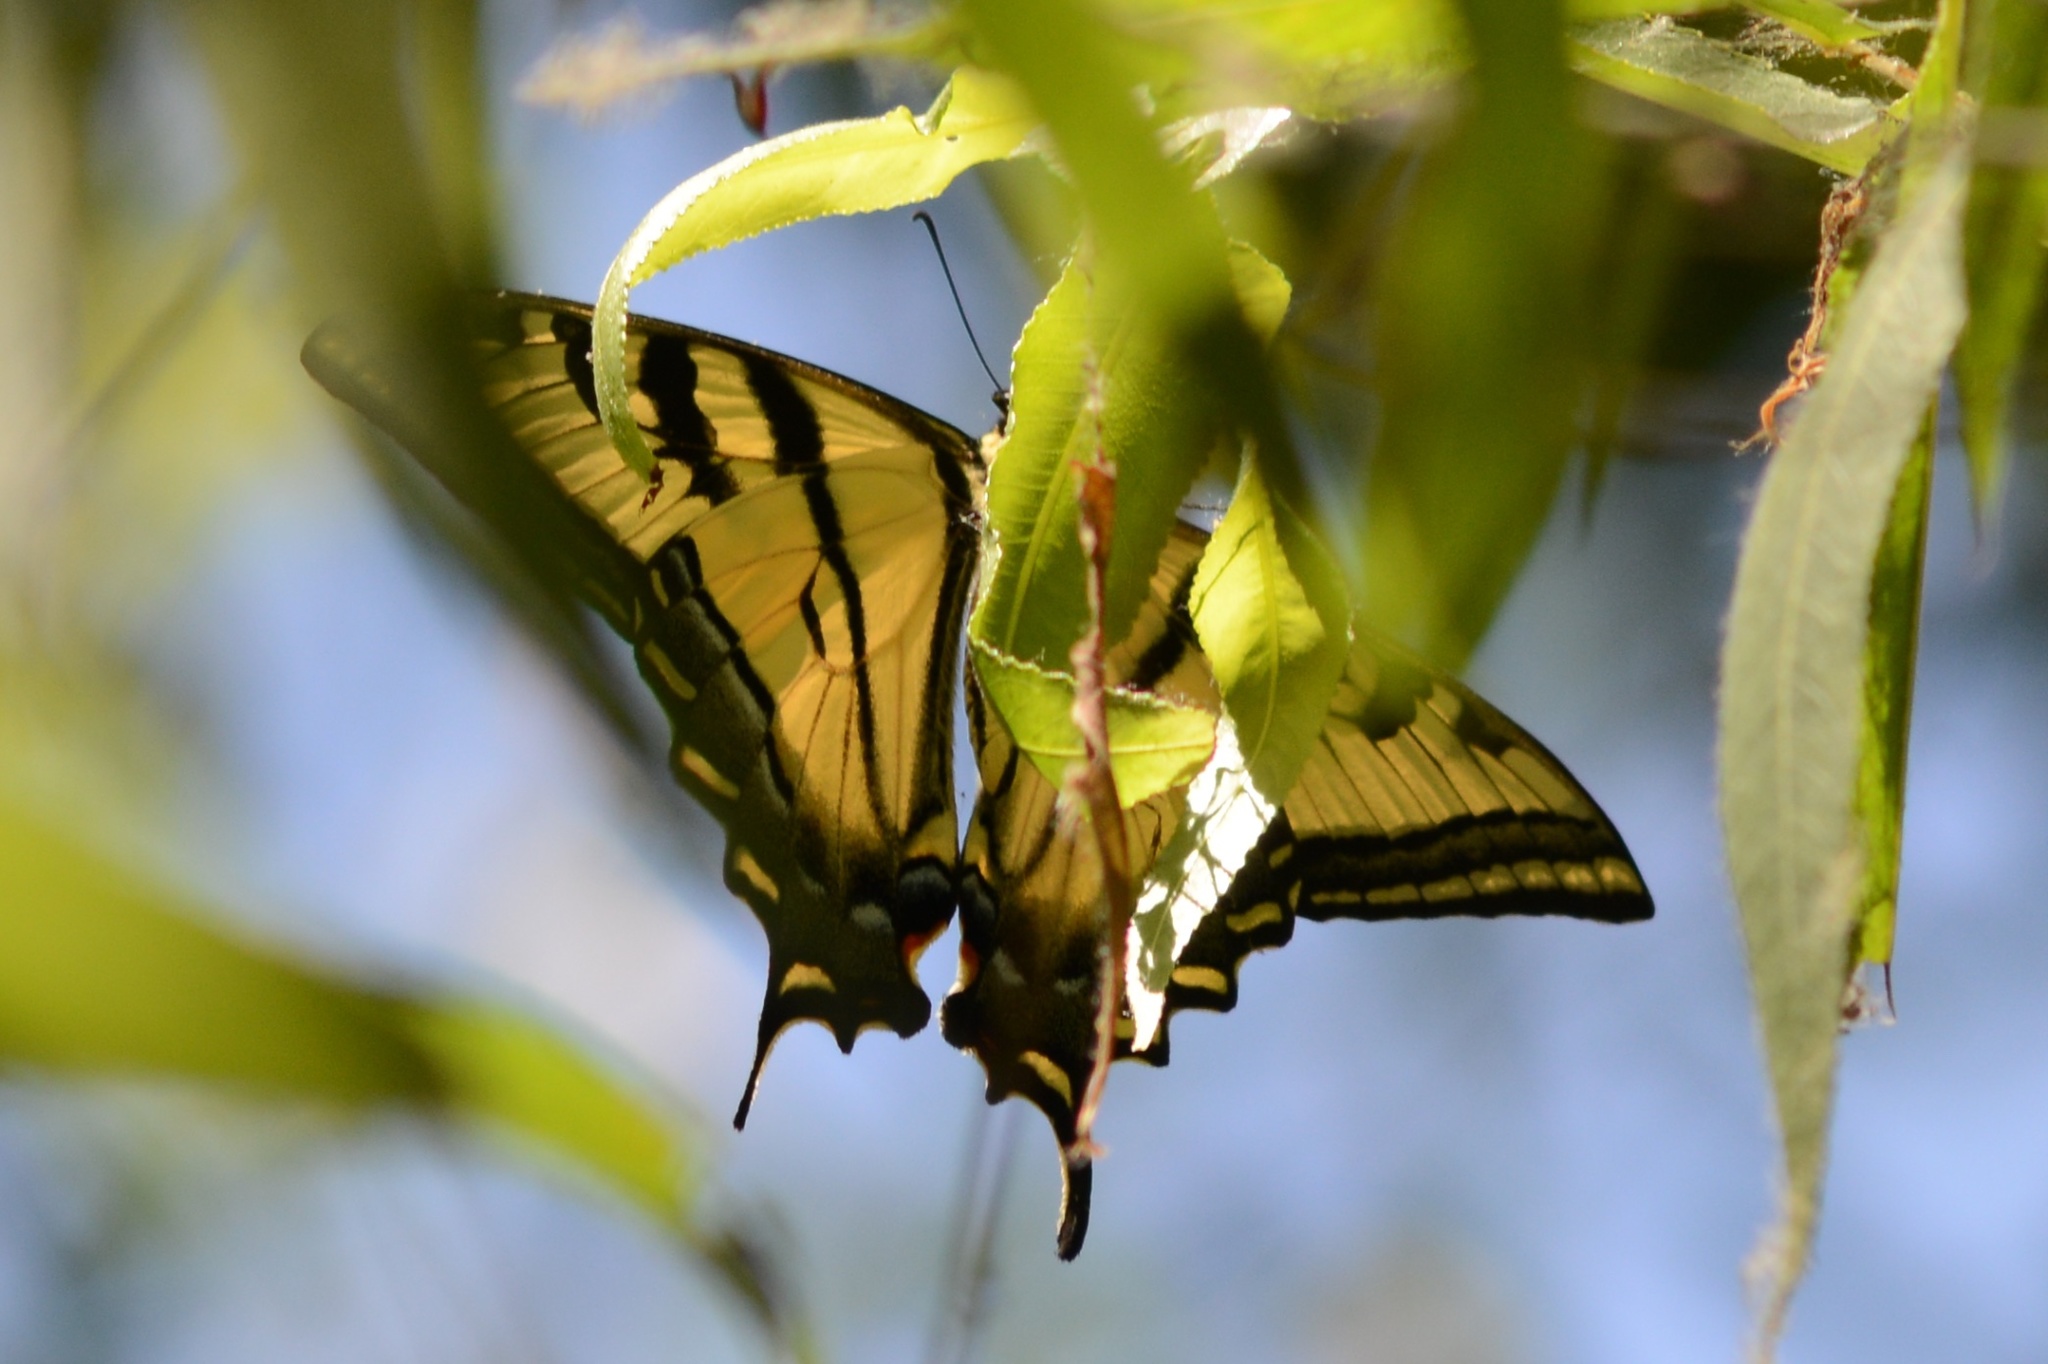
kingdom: Animalia
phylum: Arthropoda
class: Insecta
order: Lepidoptera
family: Papilionidae
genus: Papilio
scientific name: Papilio rutulus
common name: Western tiger swallowtail
